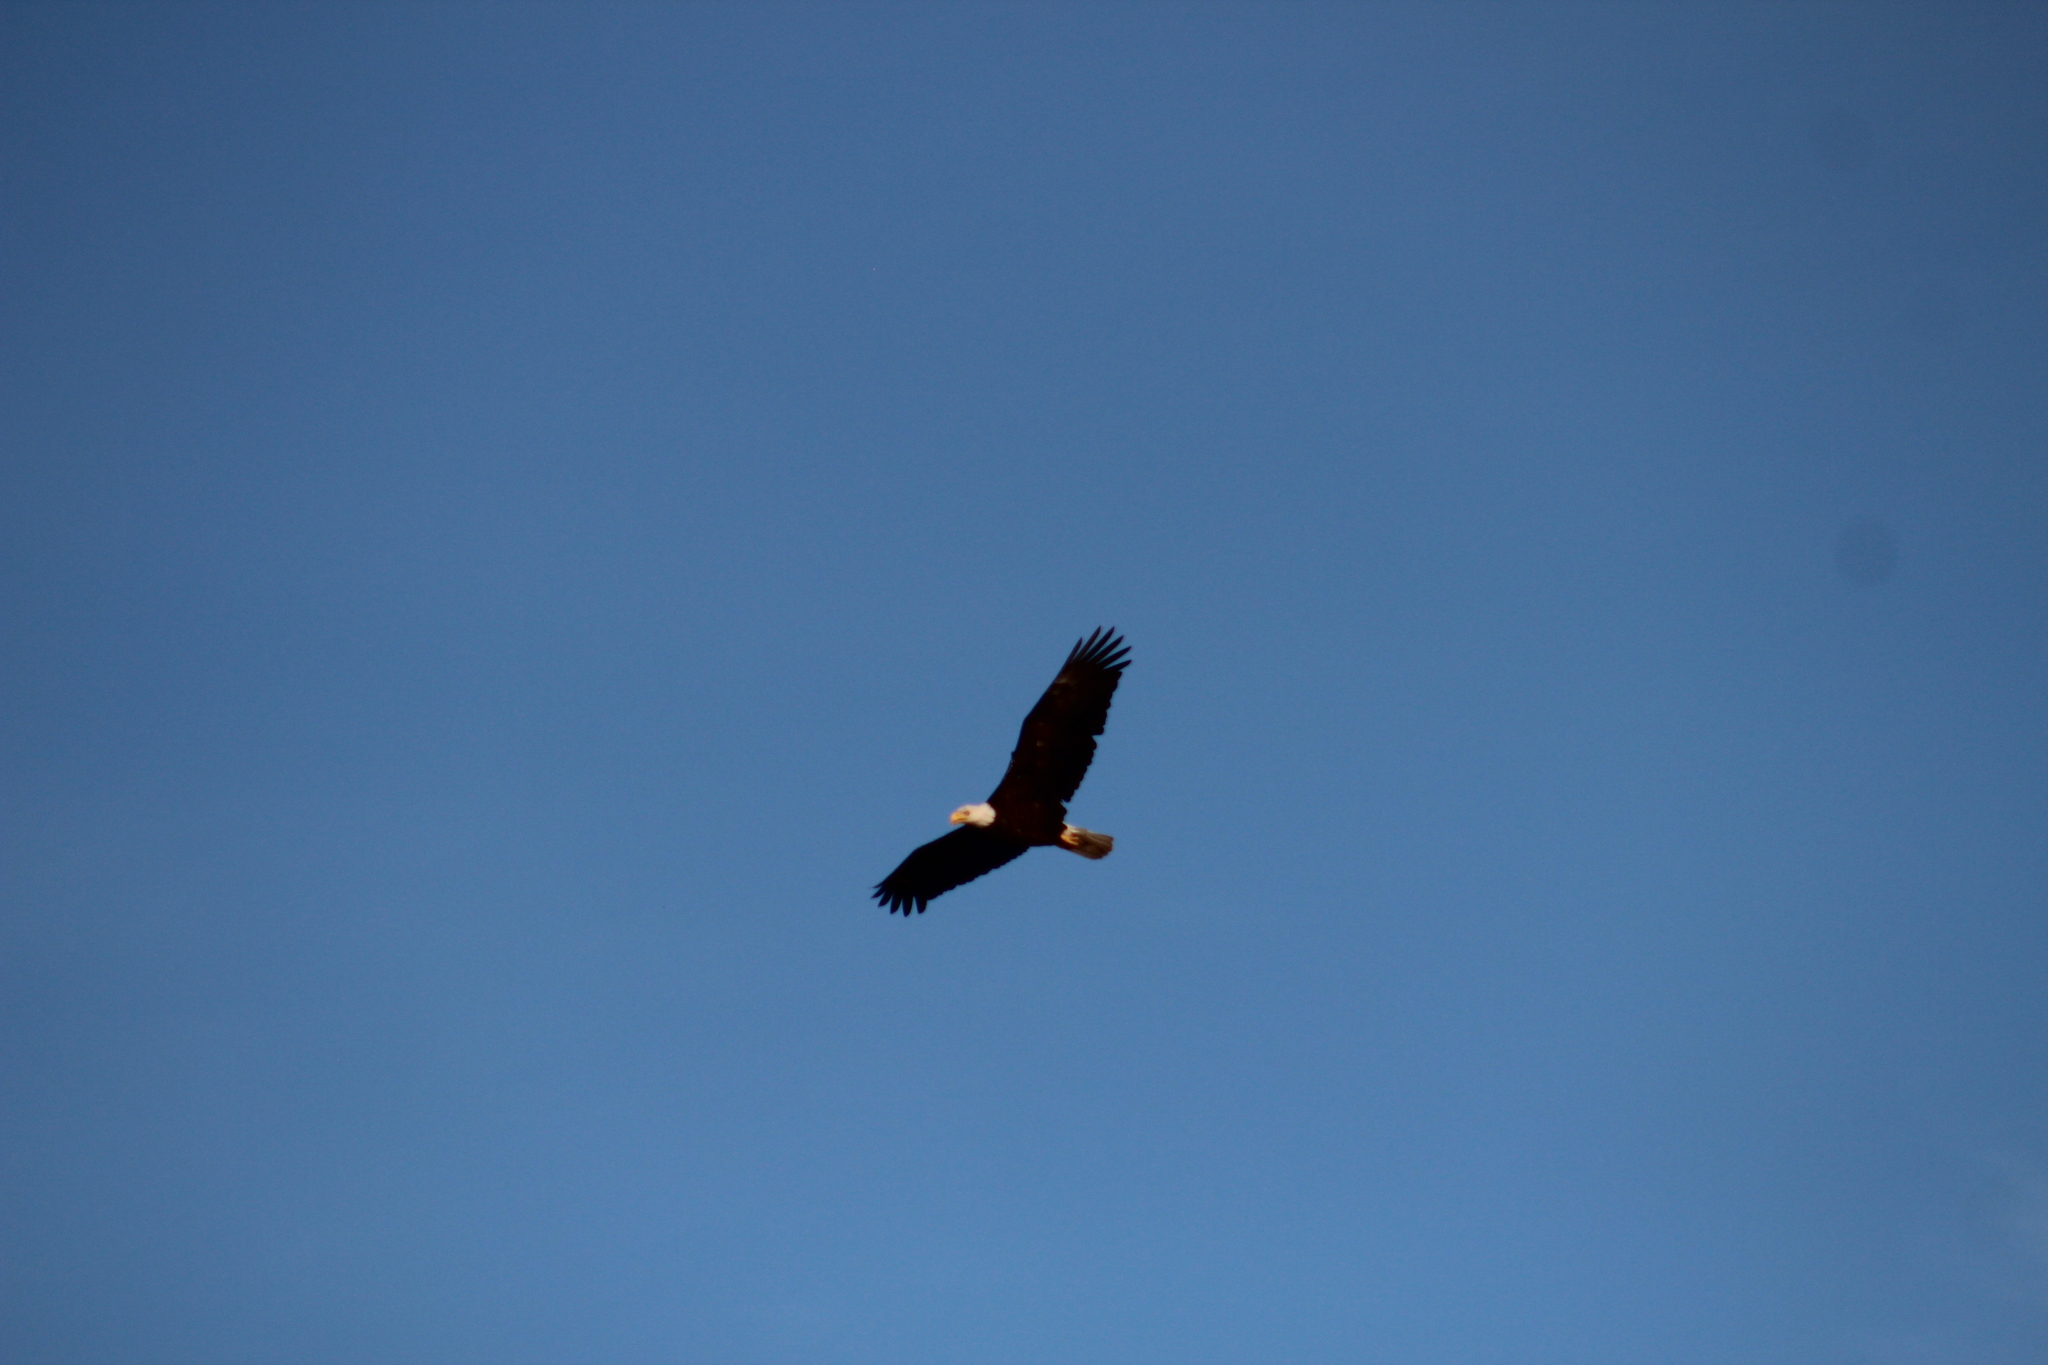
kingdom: Animalia
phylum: Chordata
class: Aves
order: Accipitriformes
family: Accipitridae
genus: Haliaeetus
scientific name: Haliaeetus leucocephalus
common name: Bald eagle
